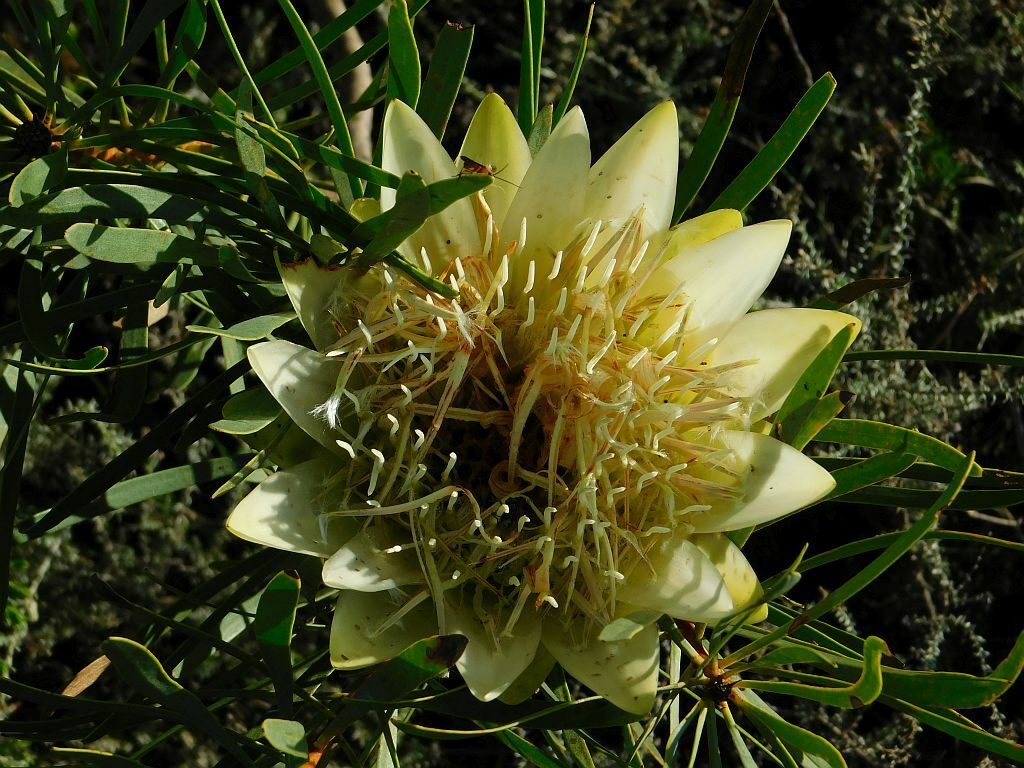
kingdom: Plantae
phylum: Tracheophyta
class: Magnoliopsida
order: Proteales
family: Proteaceae
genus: Protea
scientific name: Protea repens
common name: Sugarbush
